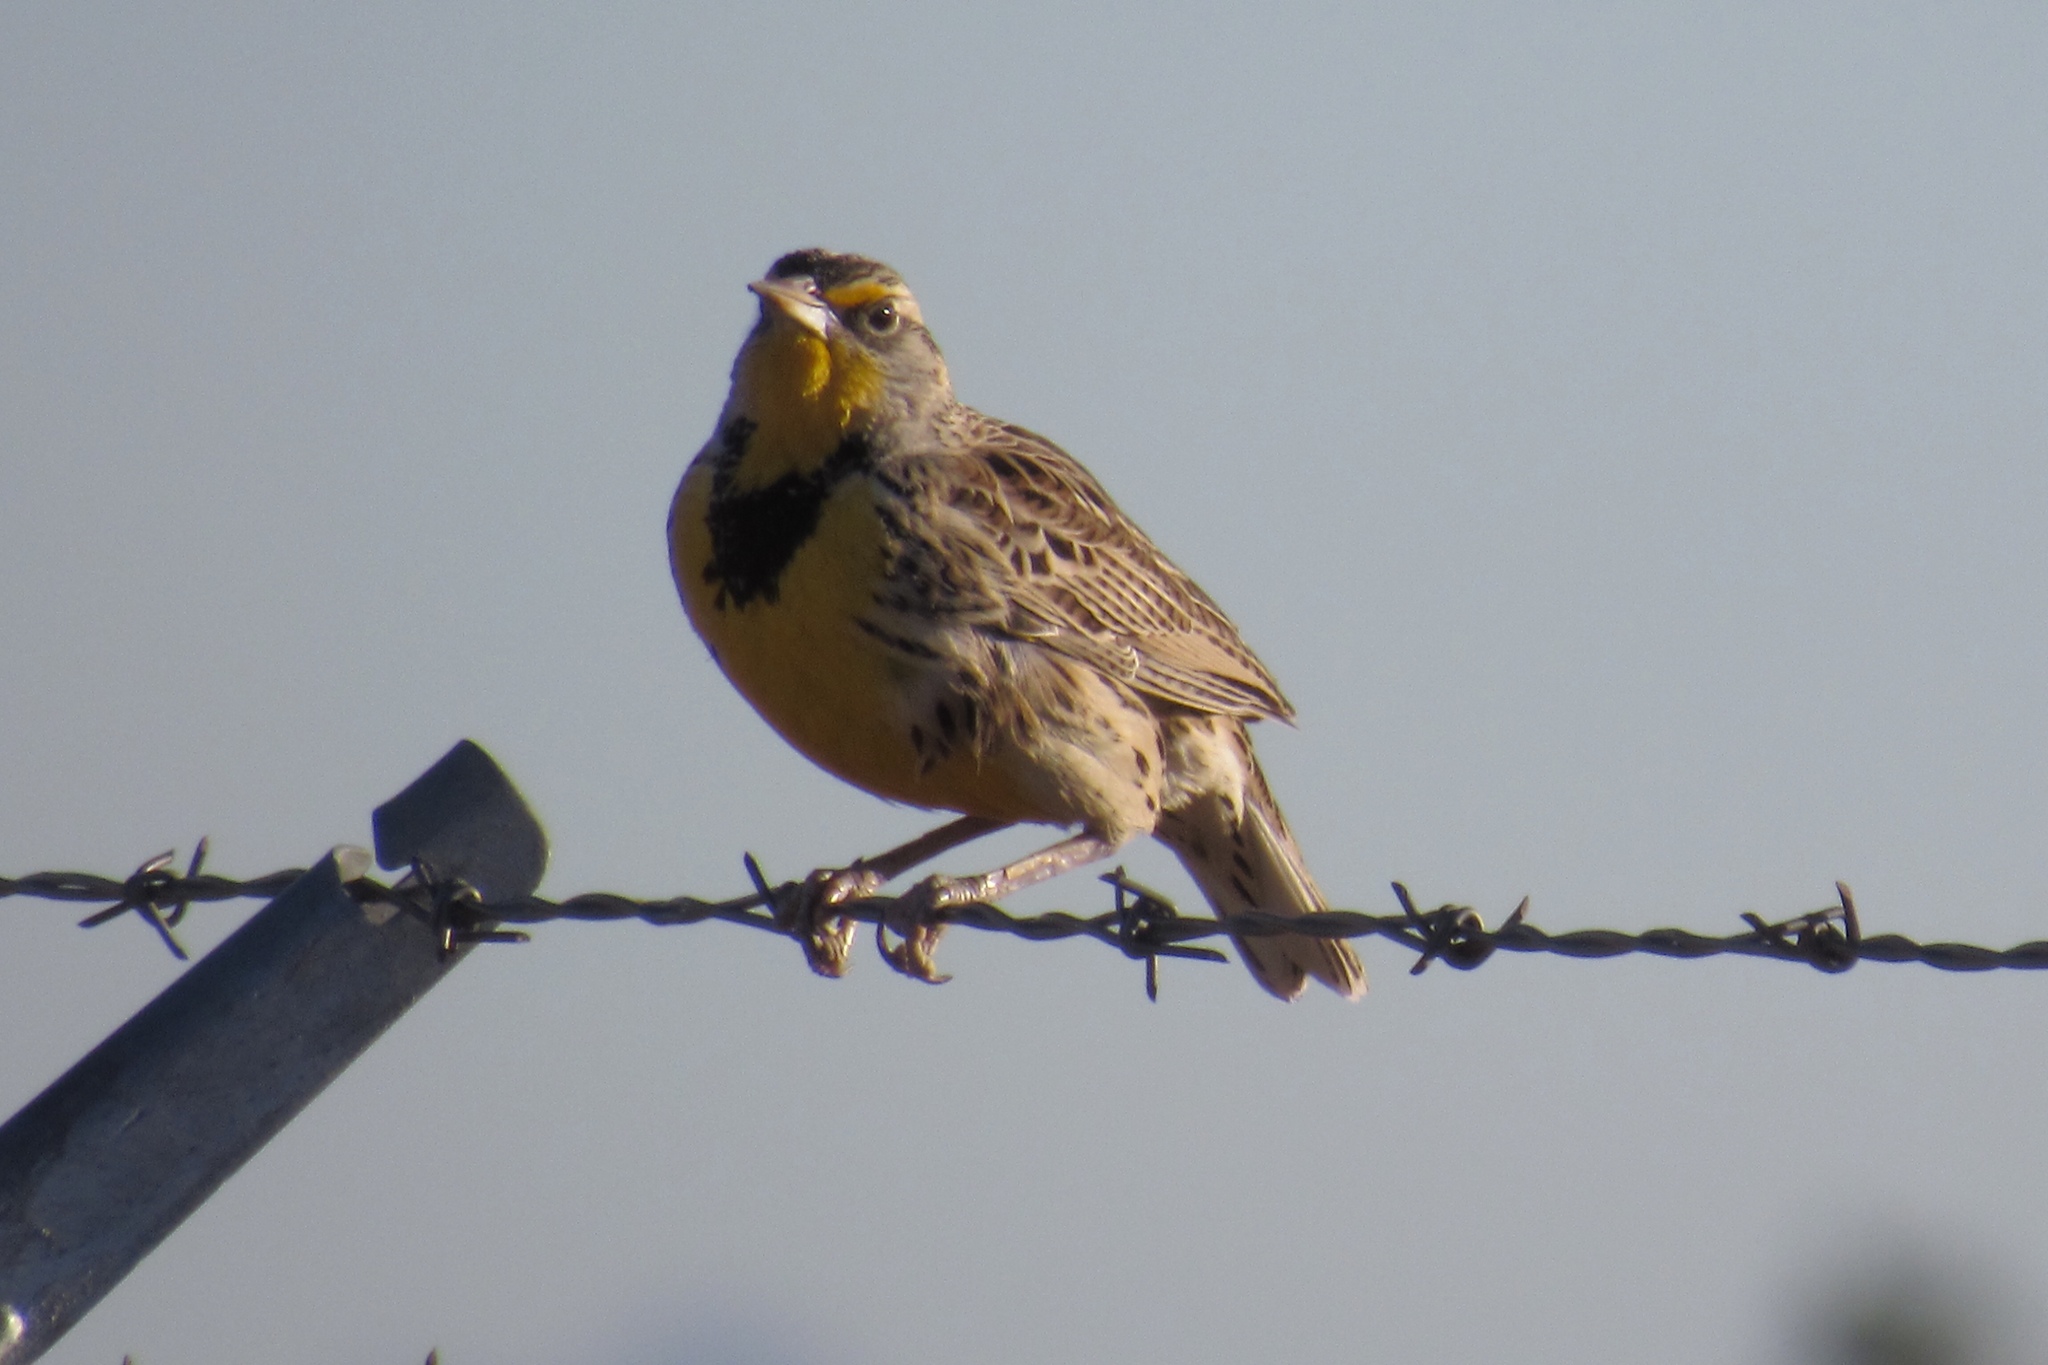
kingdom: Animalia
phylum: Chordata
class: Aves
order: Passeriformes
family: Icteridae
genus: Sturnella
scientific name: Sturnella neglecta
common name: Western meadowlark
